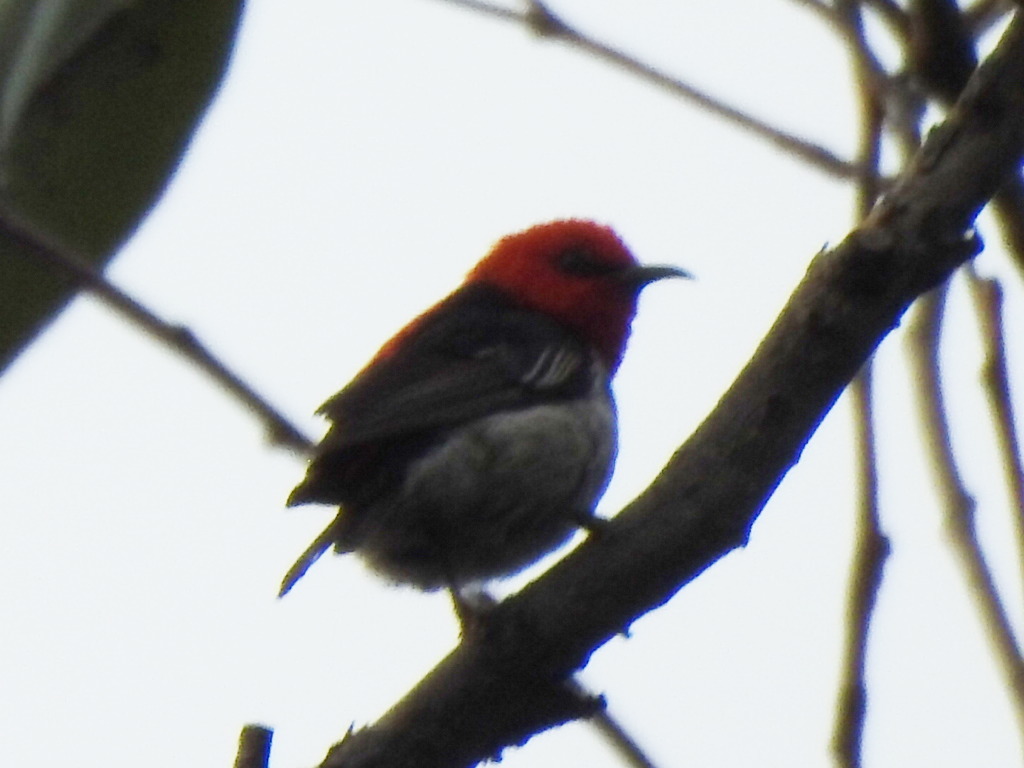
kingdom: Animalia
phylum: Chordata
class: Aves
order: Passeriformes
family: Meliphagidae
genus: Myzomela
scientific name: Myzomela sanguinolenta
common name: Scarlet myzomela
